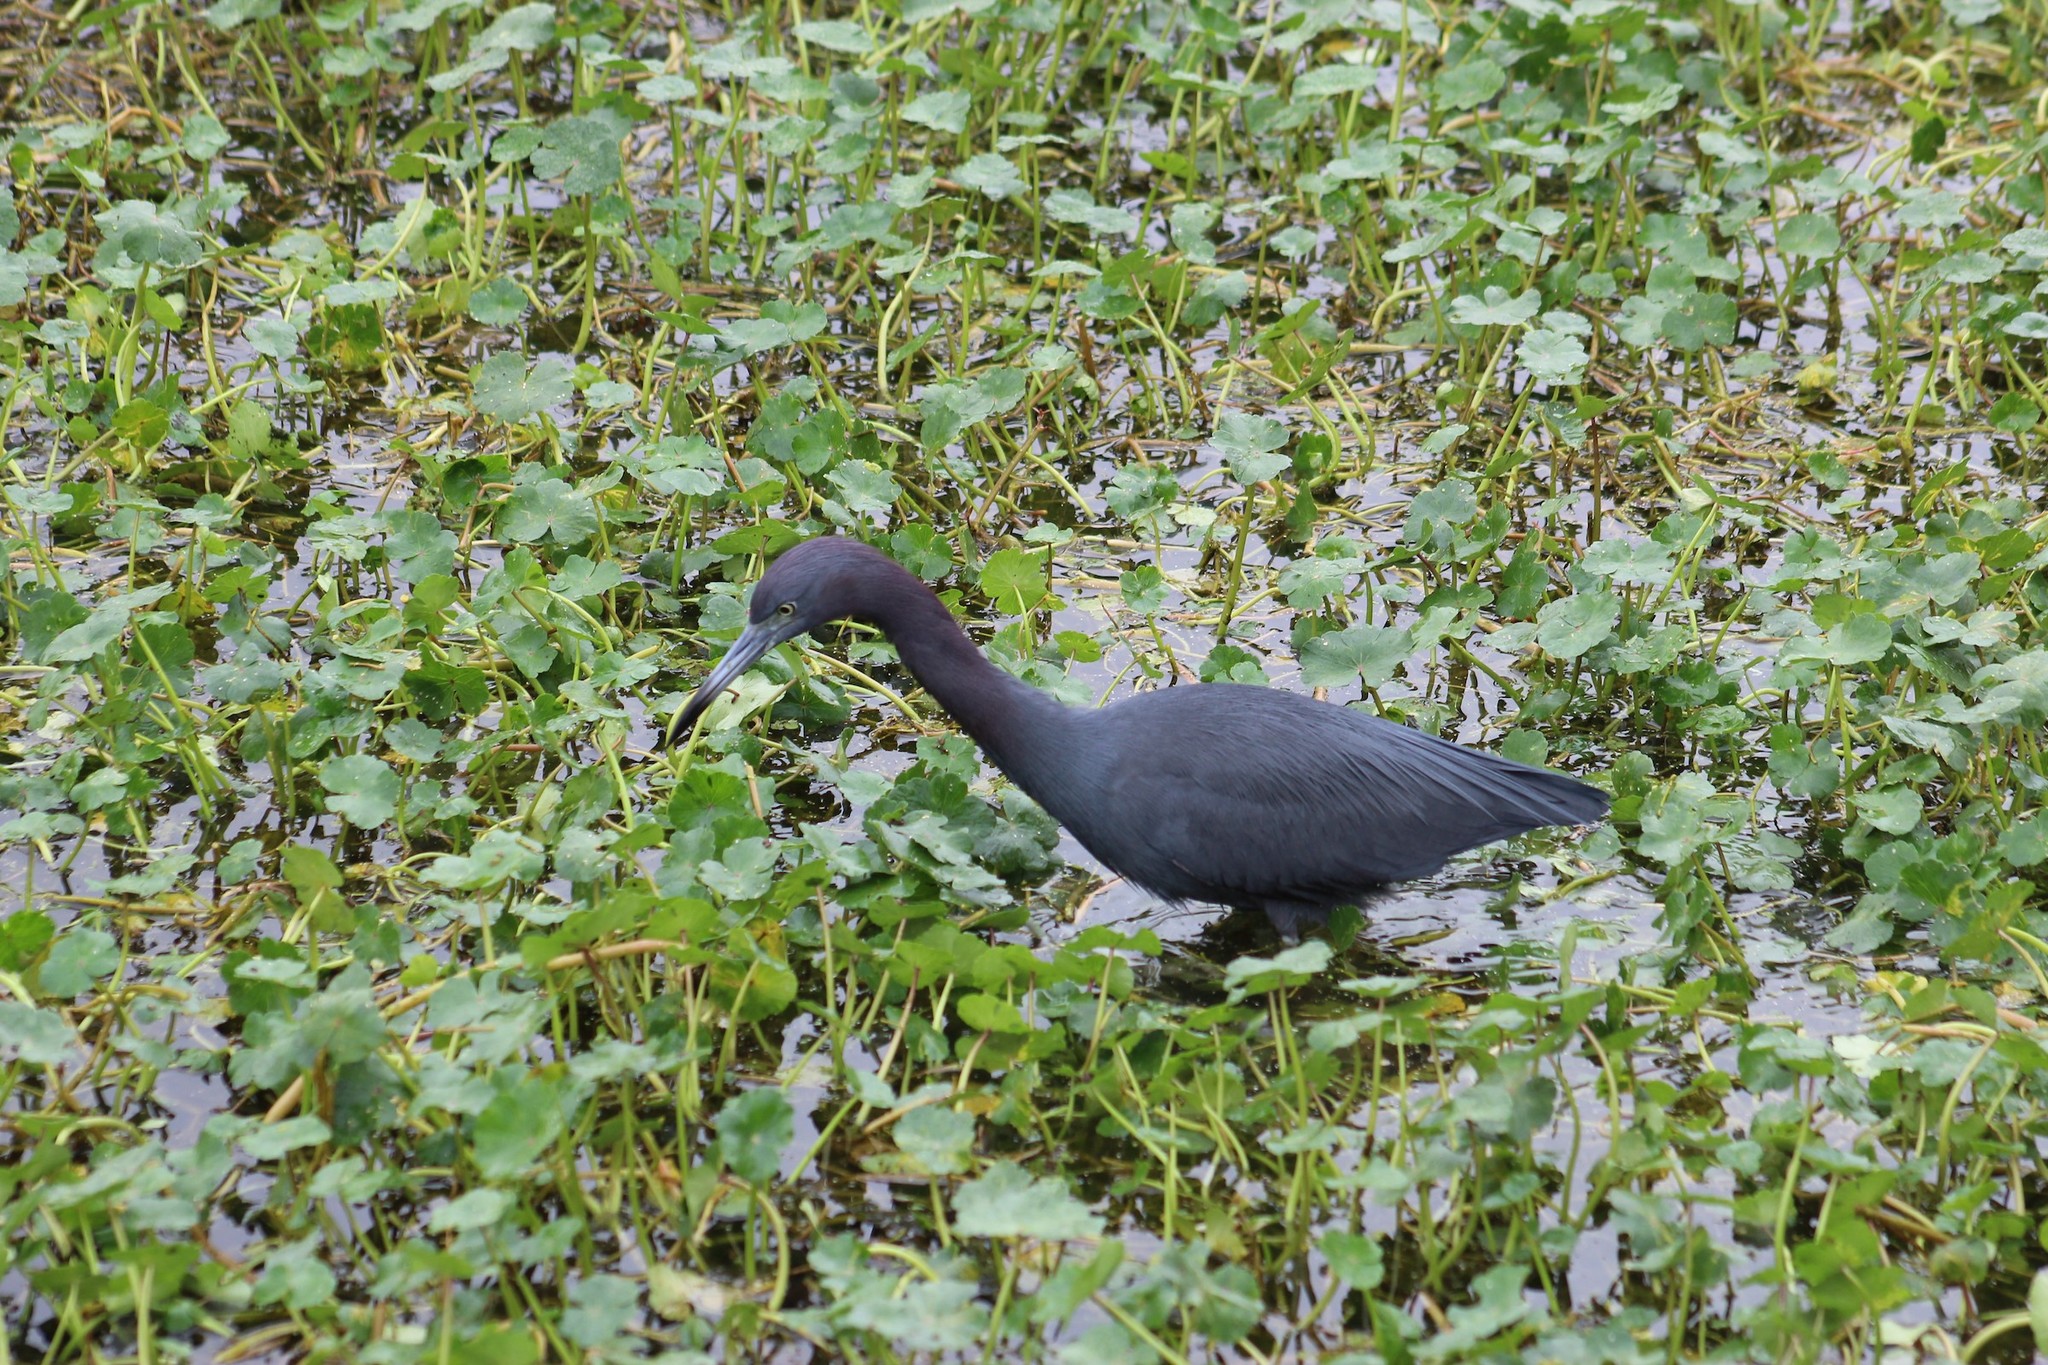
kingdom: Animalia
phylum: Chordata
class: Aves
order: Pelecaniformes
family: Ardeidae
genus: Egretta
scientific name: Egretta caerulea
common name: Little blue heron
